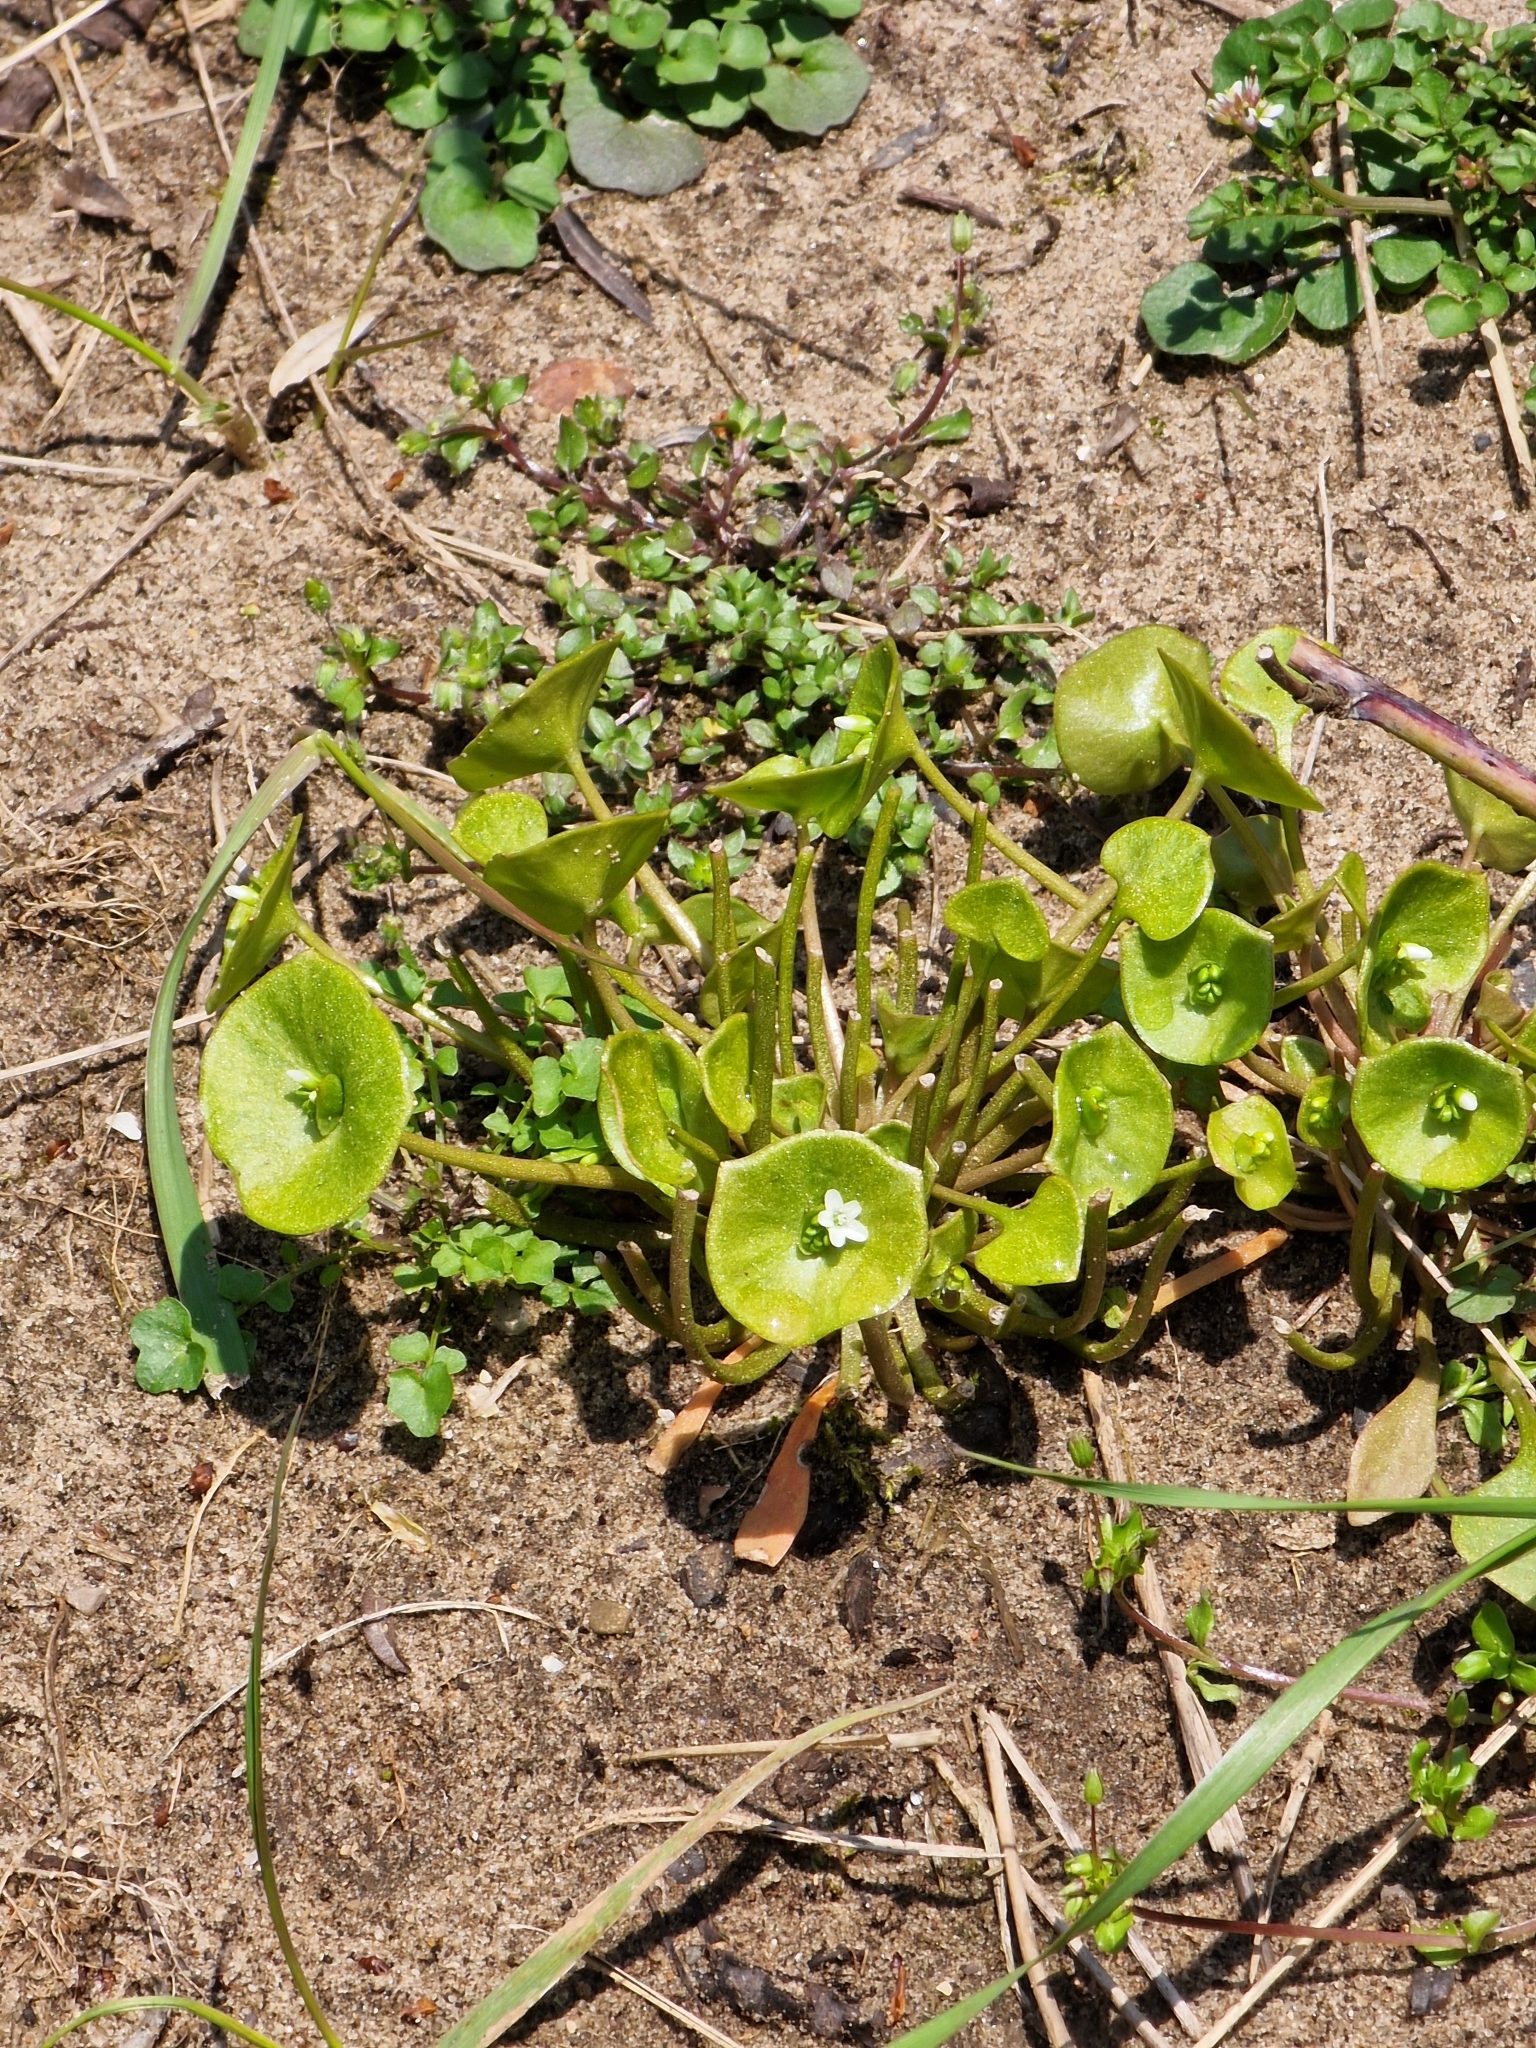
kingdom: Plantae
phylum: Tracheophyta
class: Magnoliopsida
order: Caryophyllales
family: Montiaceae
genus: Claytonia
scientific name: Claytonia perfoliata
